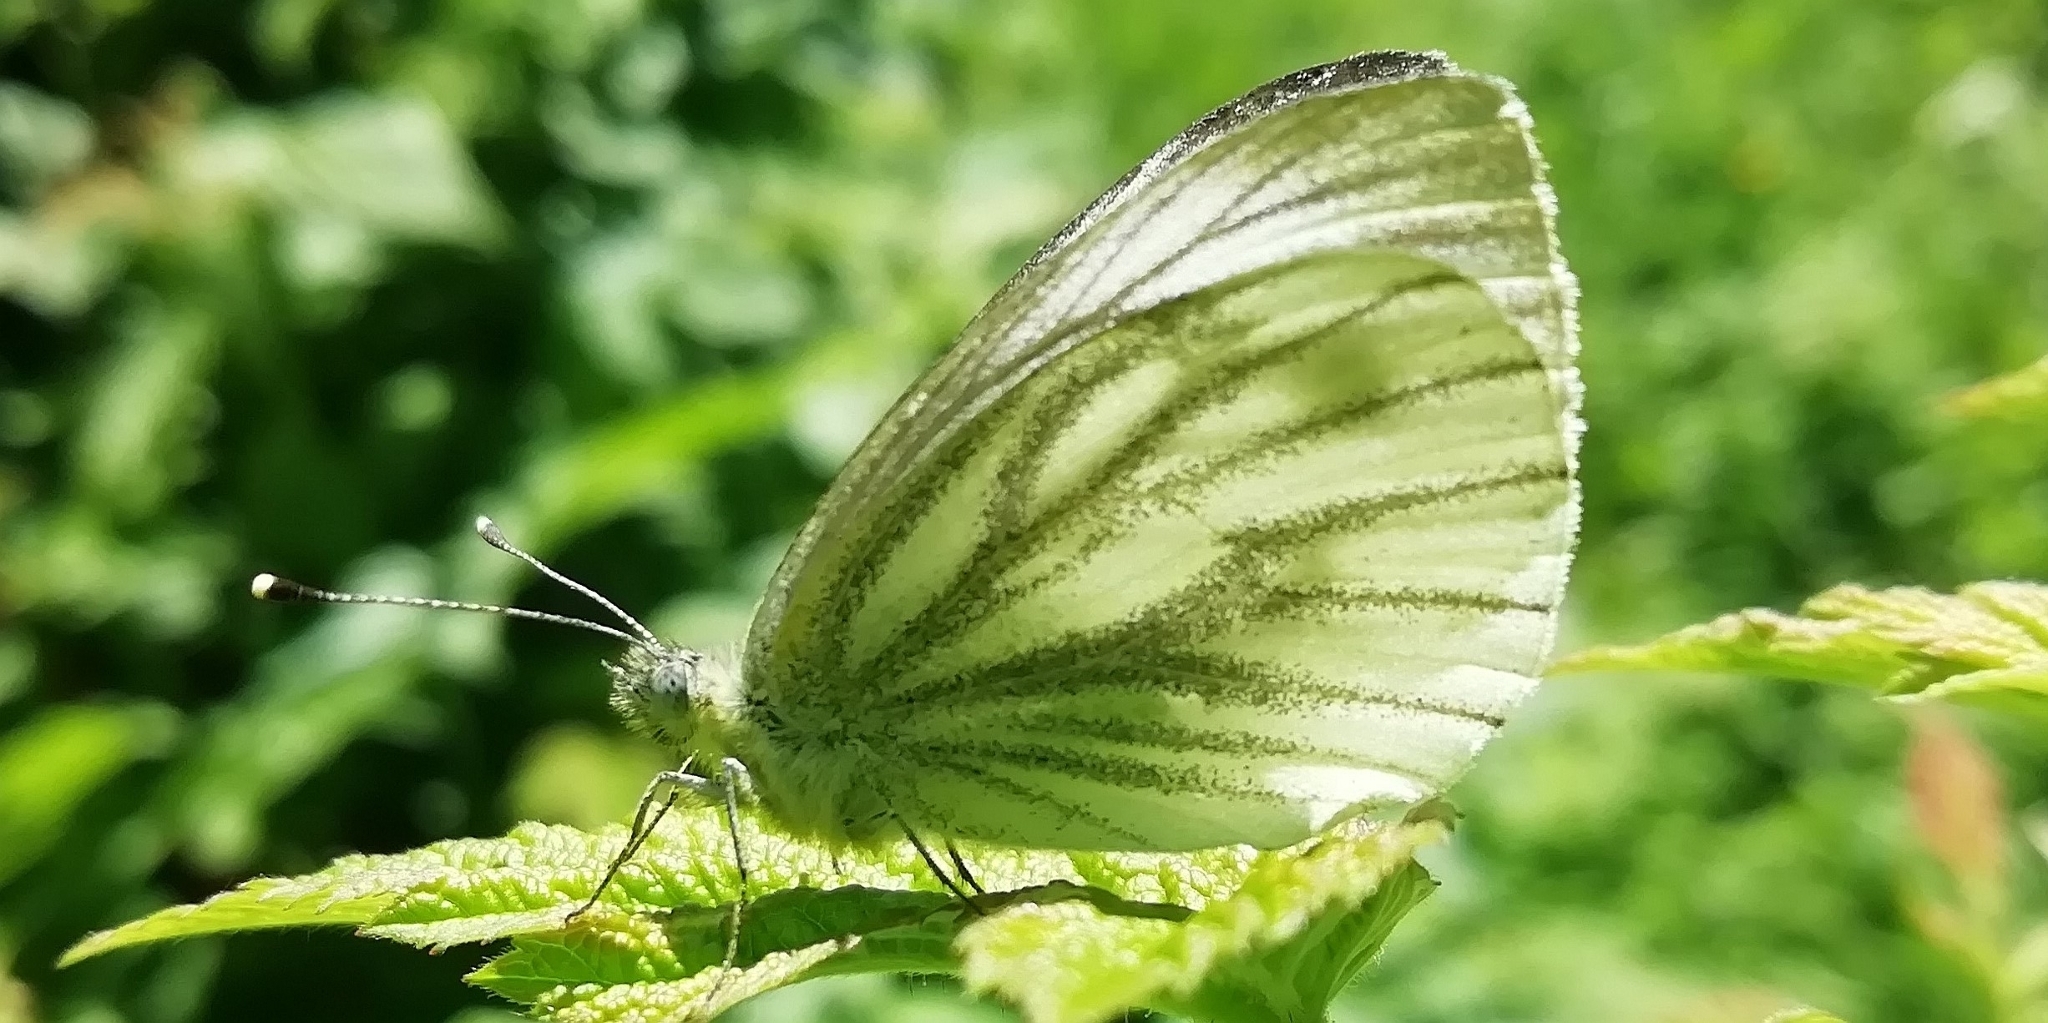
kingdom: Animalia
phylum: Arthropoda
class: Insecta
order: Lepidoptera
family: Pieridae
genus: Pieris
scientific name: Pieris napi
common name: Green-veined white
